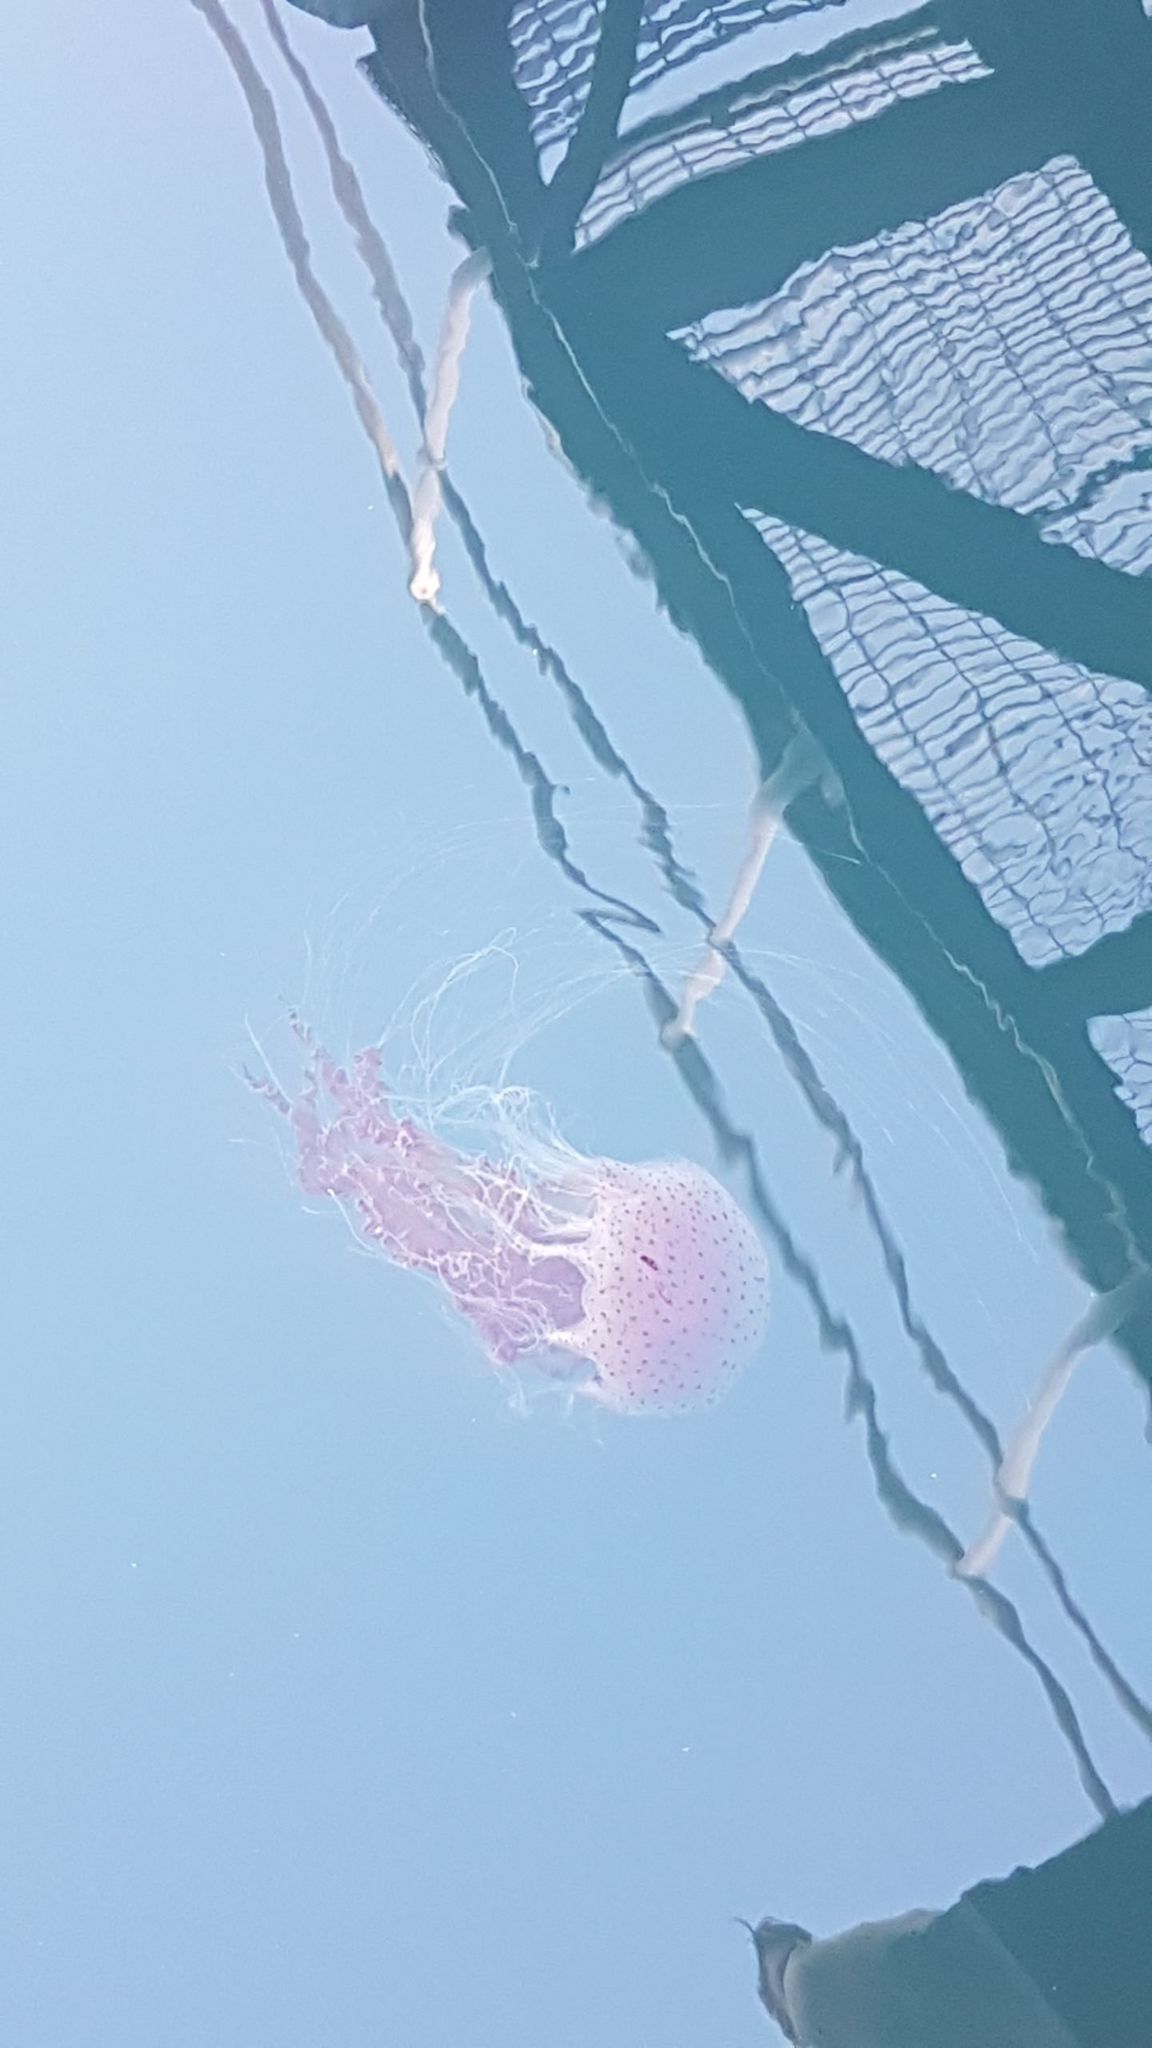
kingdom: Animalia
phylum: Cnidaria
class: Scyphozoa
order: Semaeostomeae
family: Cyaneidae
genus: Desmonema
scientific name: Desmonema gaudichaudi
